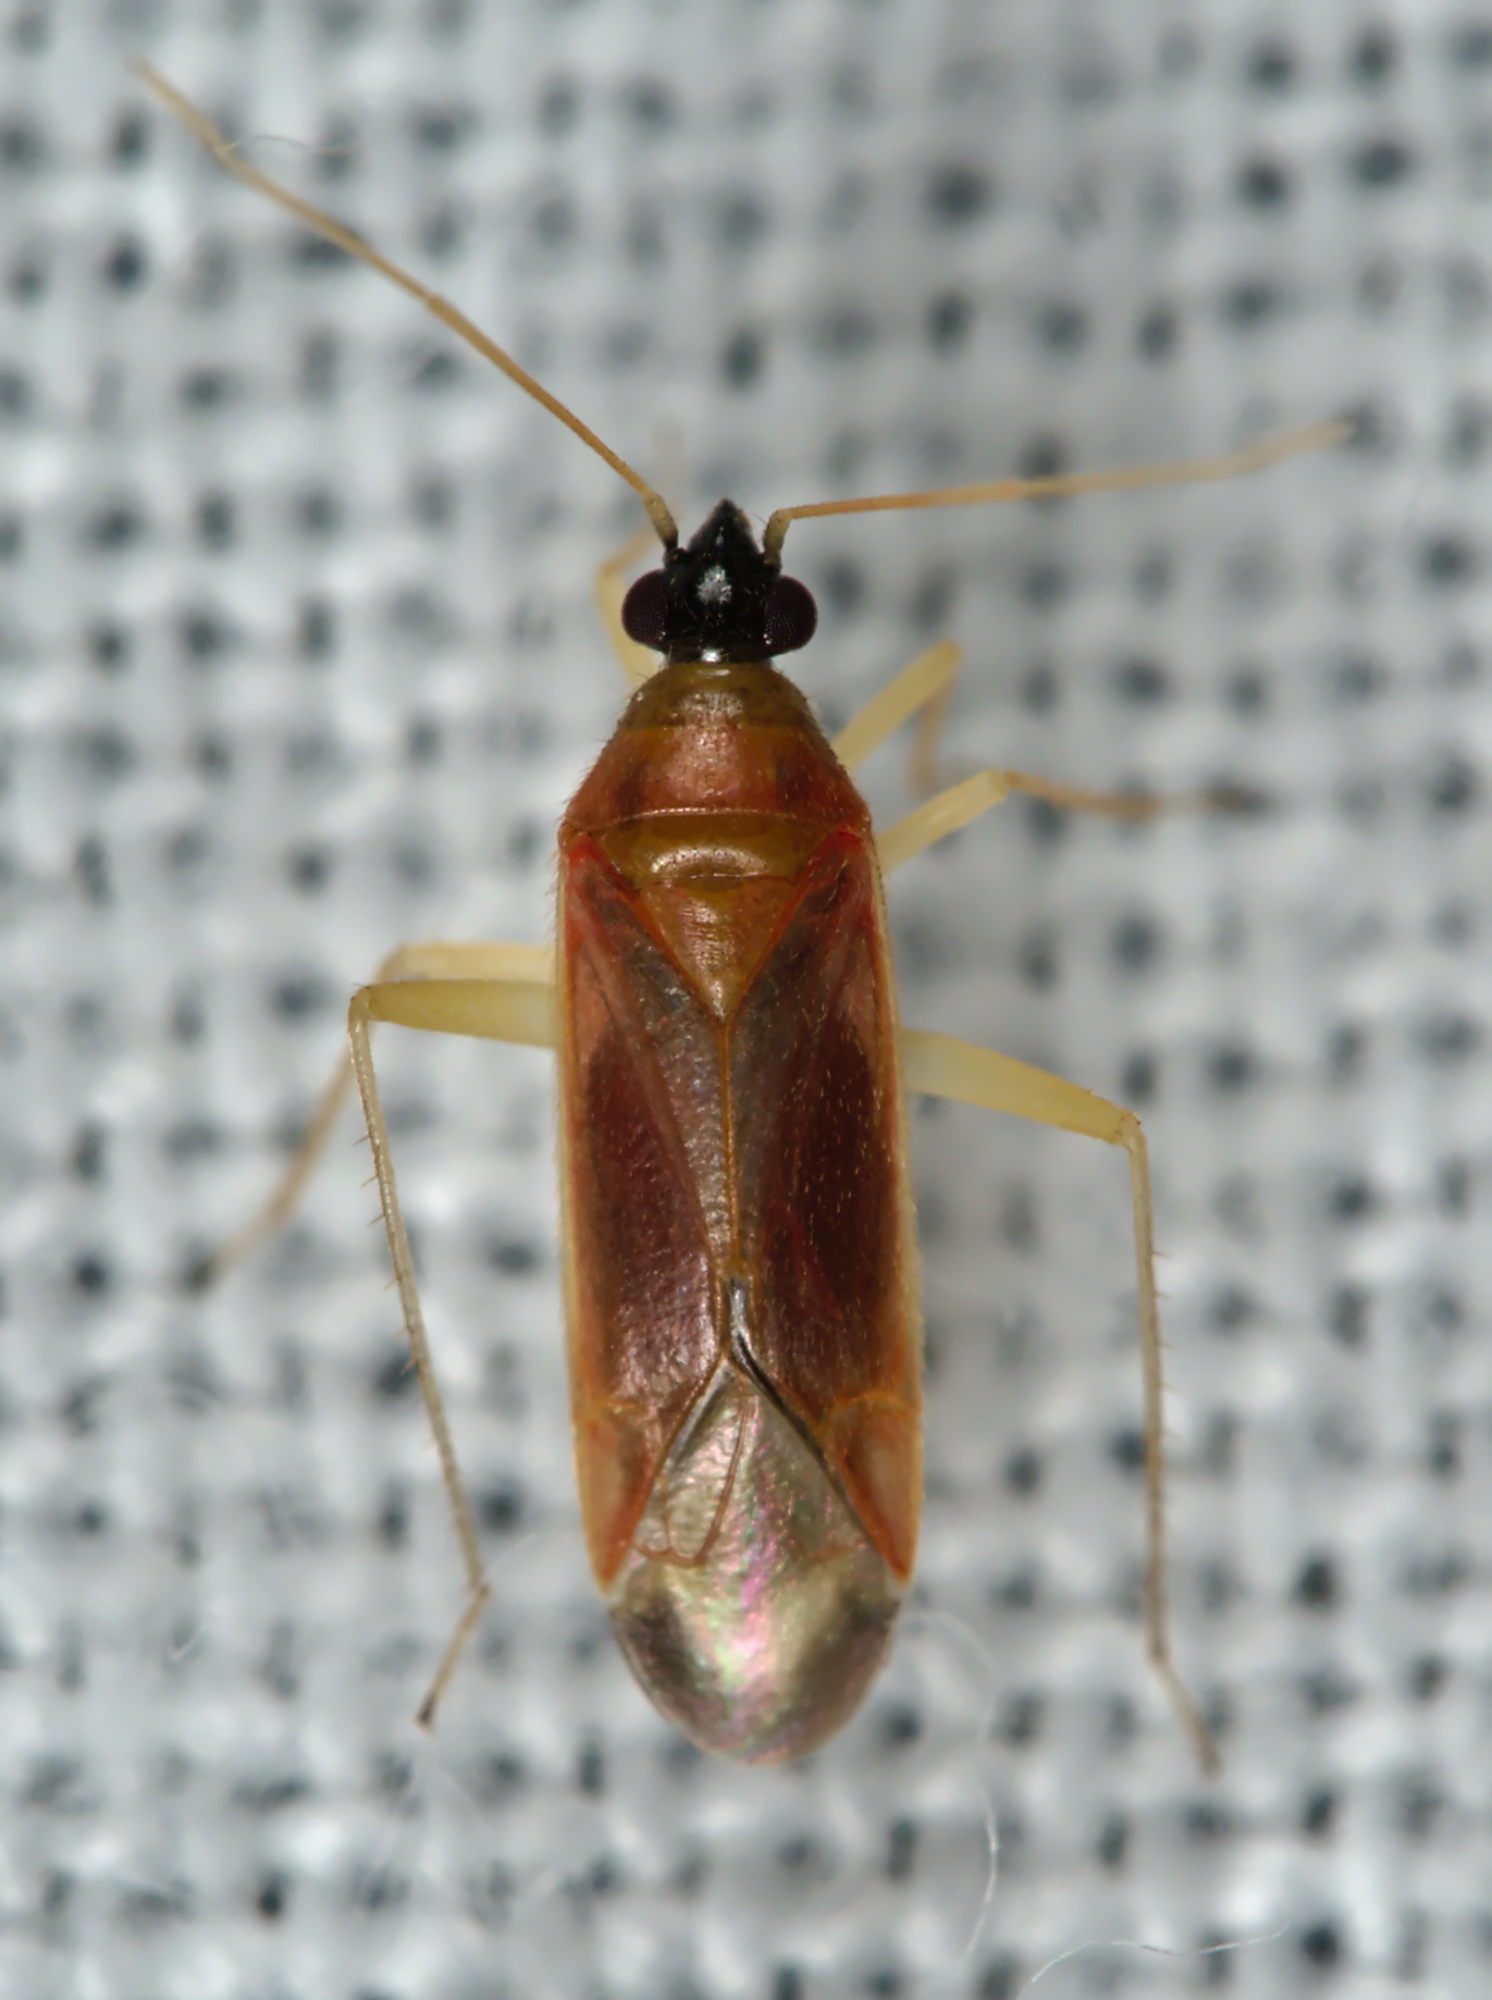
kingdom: Animalia
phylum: Arthropoda
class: Insecta
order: Hemiptera
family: Miridae
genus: Phylus
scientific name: Phylus melanocephalus
